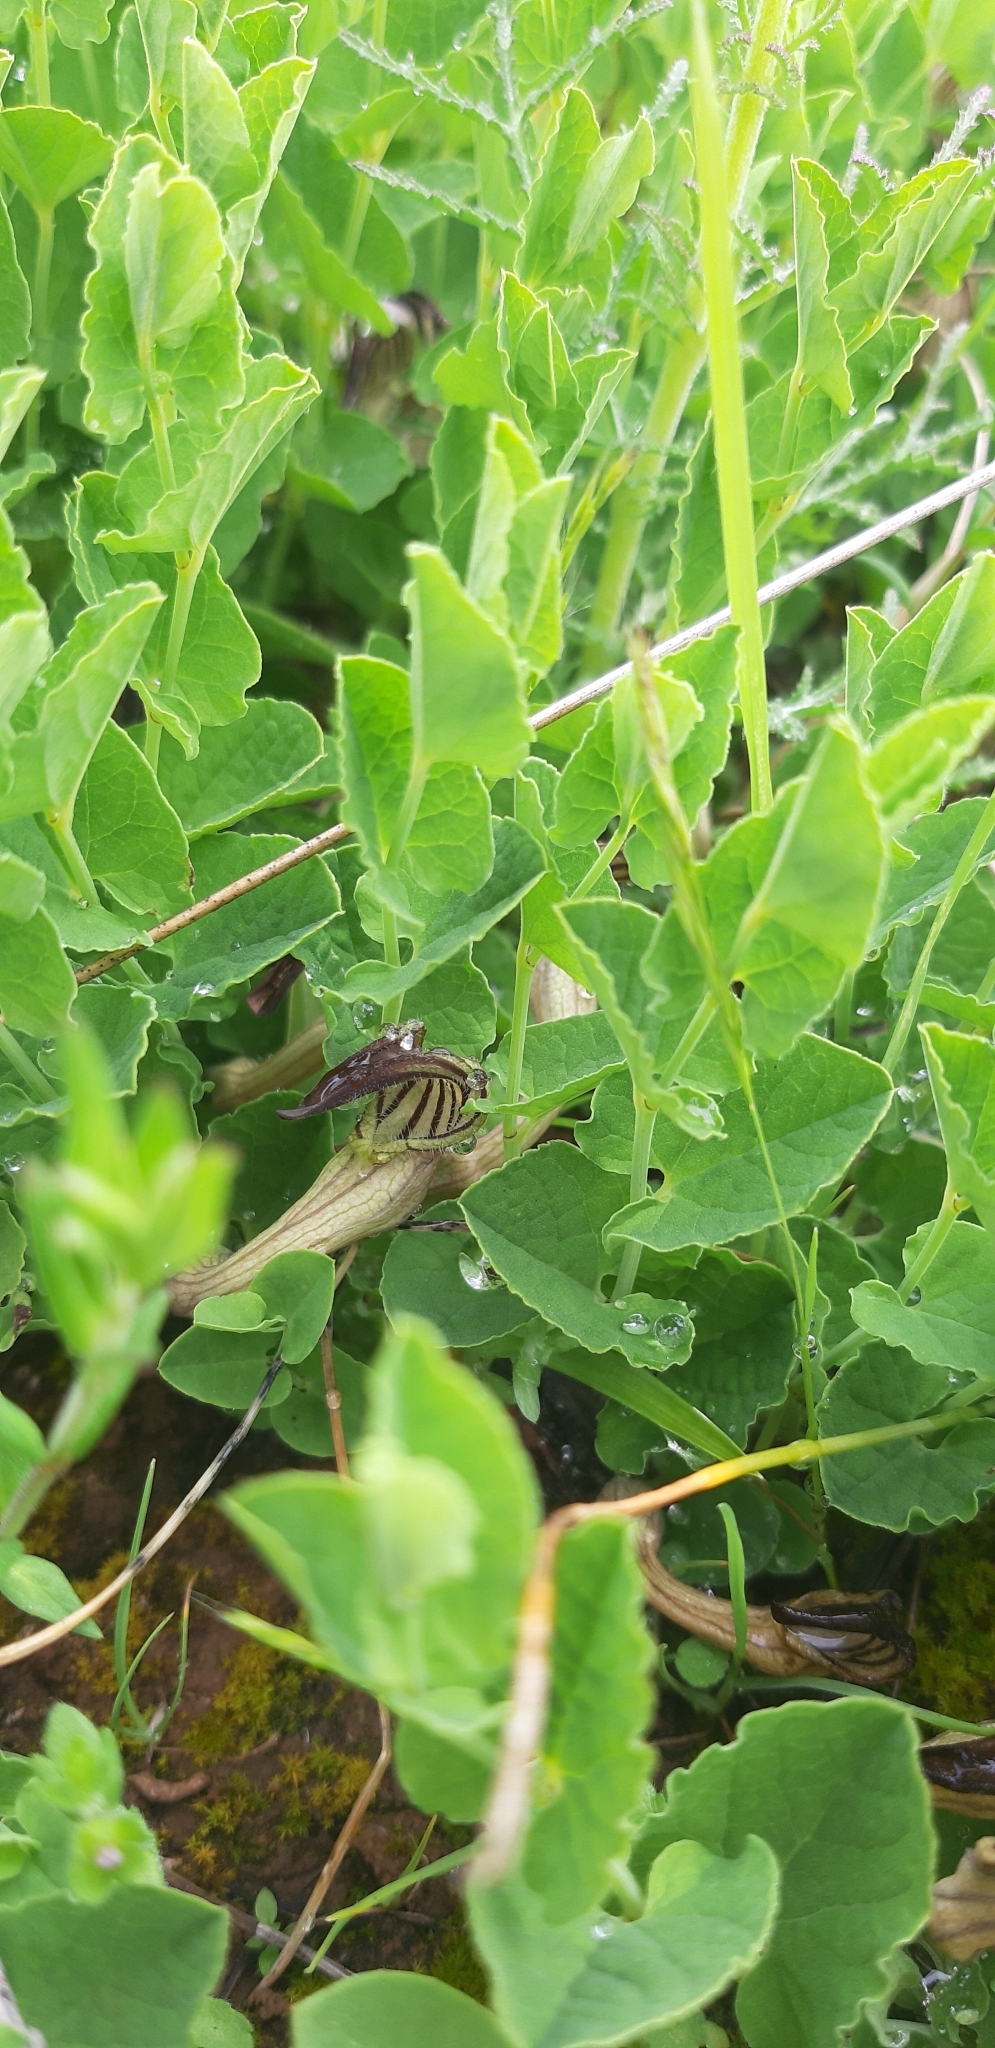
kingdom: Plantae
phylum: Tracheophyta
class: Magnoliopsida
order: Piperales
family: Aristolochiaceae
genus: Aristolochia
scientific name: Aristolochia clusii
